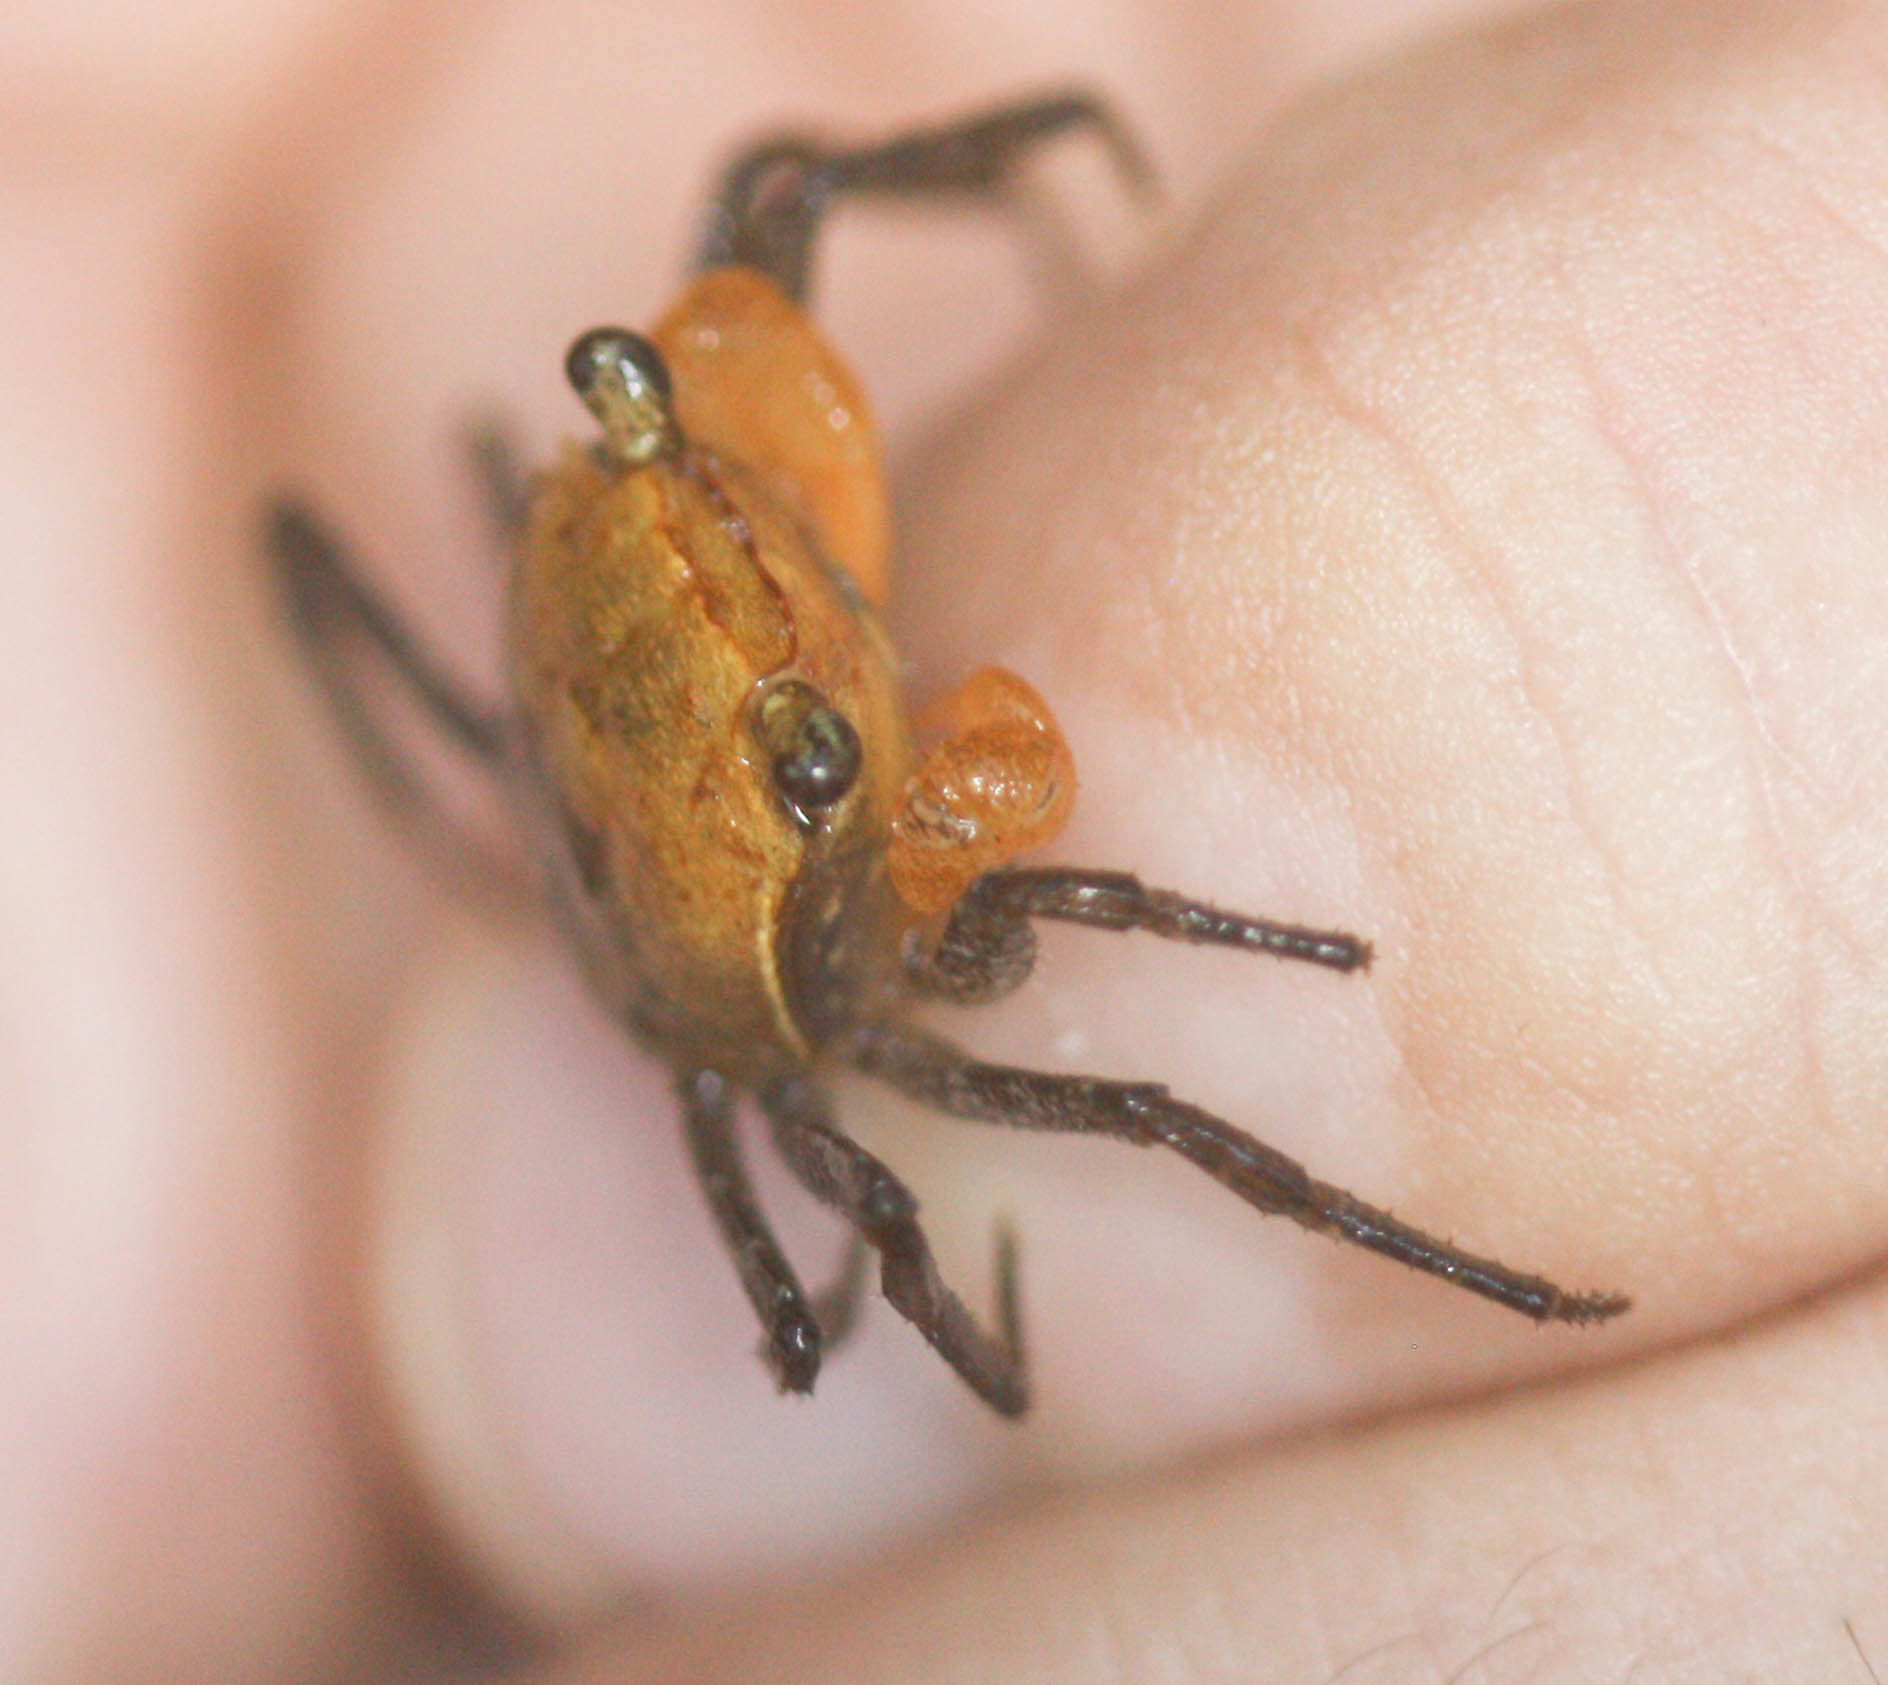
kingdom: Animalia
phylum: Arthropoda
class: Malacostraca
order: Decapoda
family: Sesarmidae
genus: Geosesarma
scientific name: Geosesarma faustum
